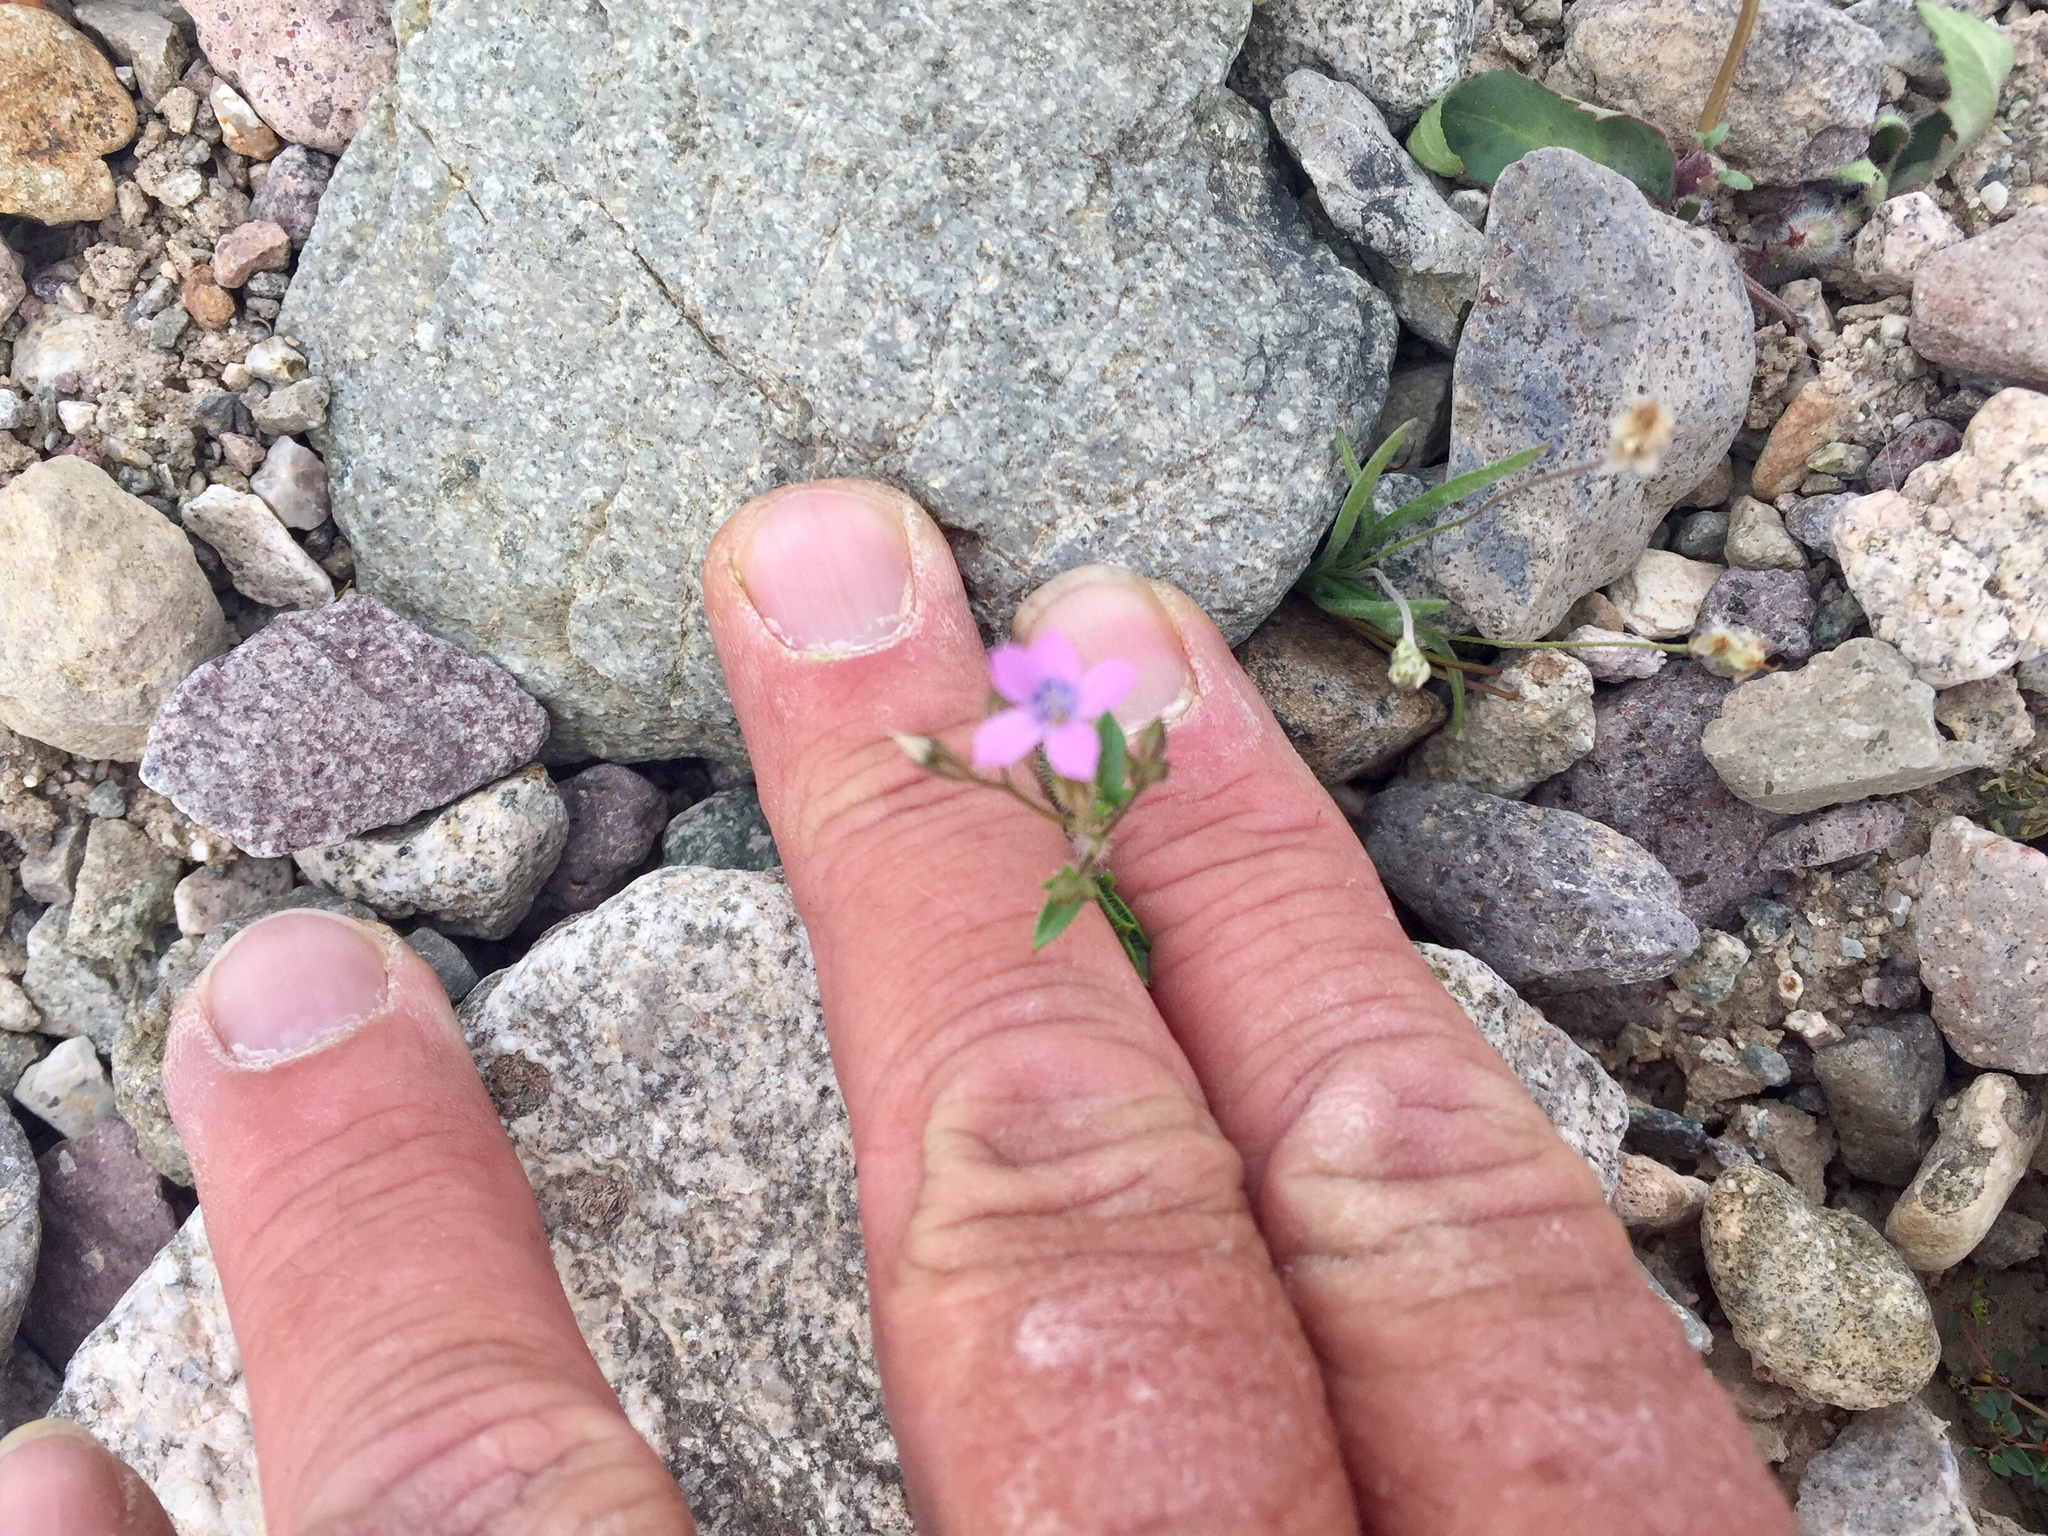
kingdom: Plantae
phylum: Tracheophyta
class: Magnoliopsida
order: Ericales
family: Polemoniaceae
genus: Gilia
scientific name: Gilia scopulorum
